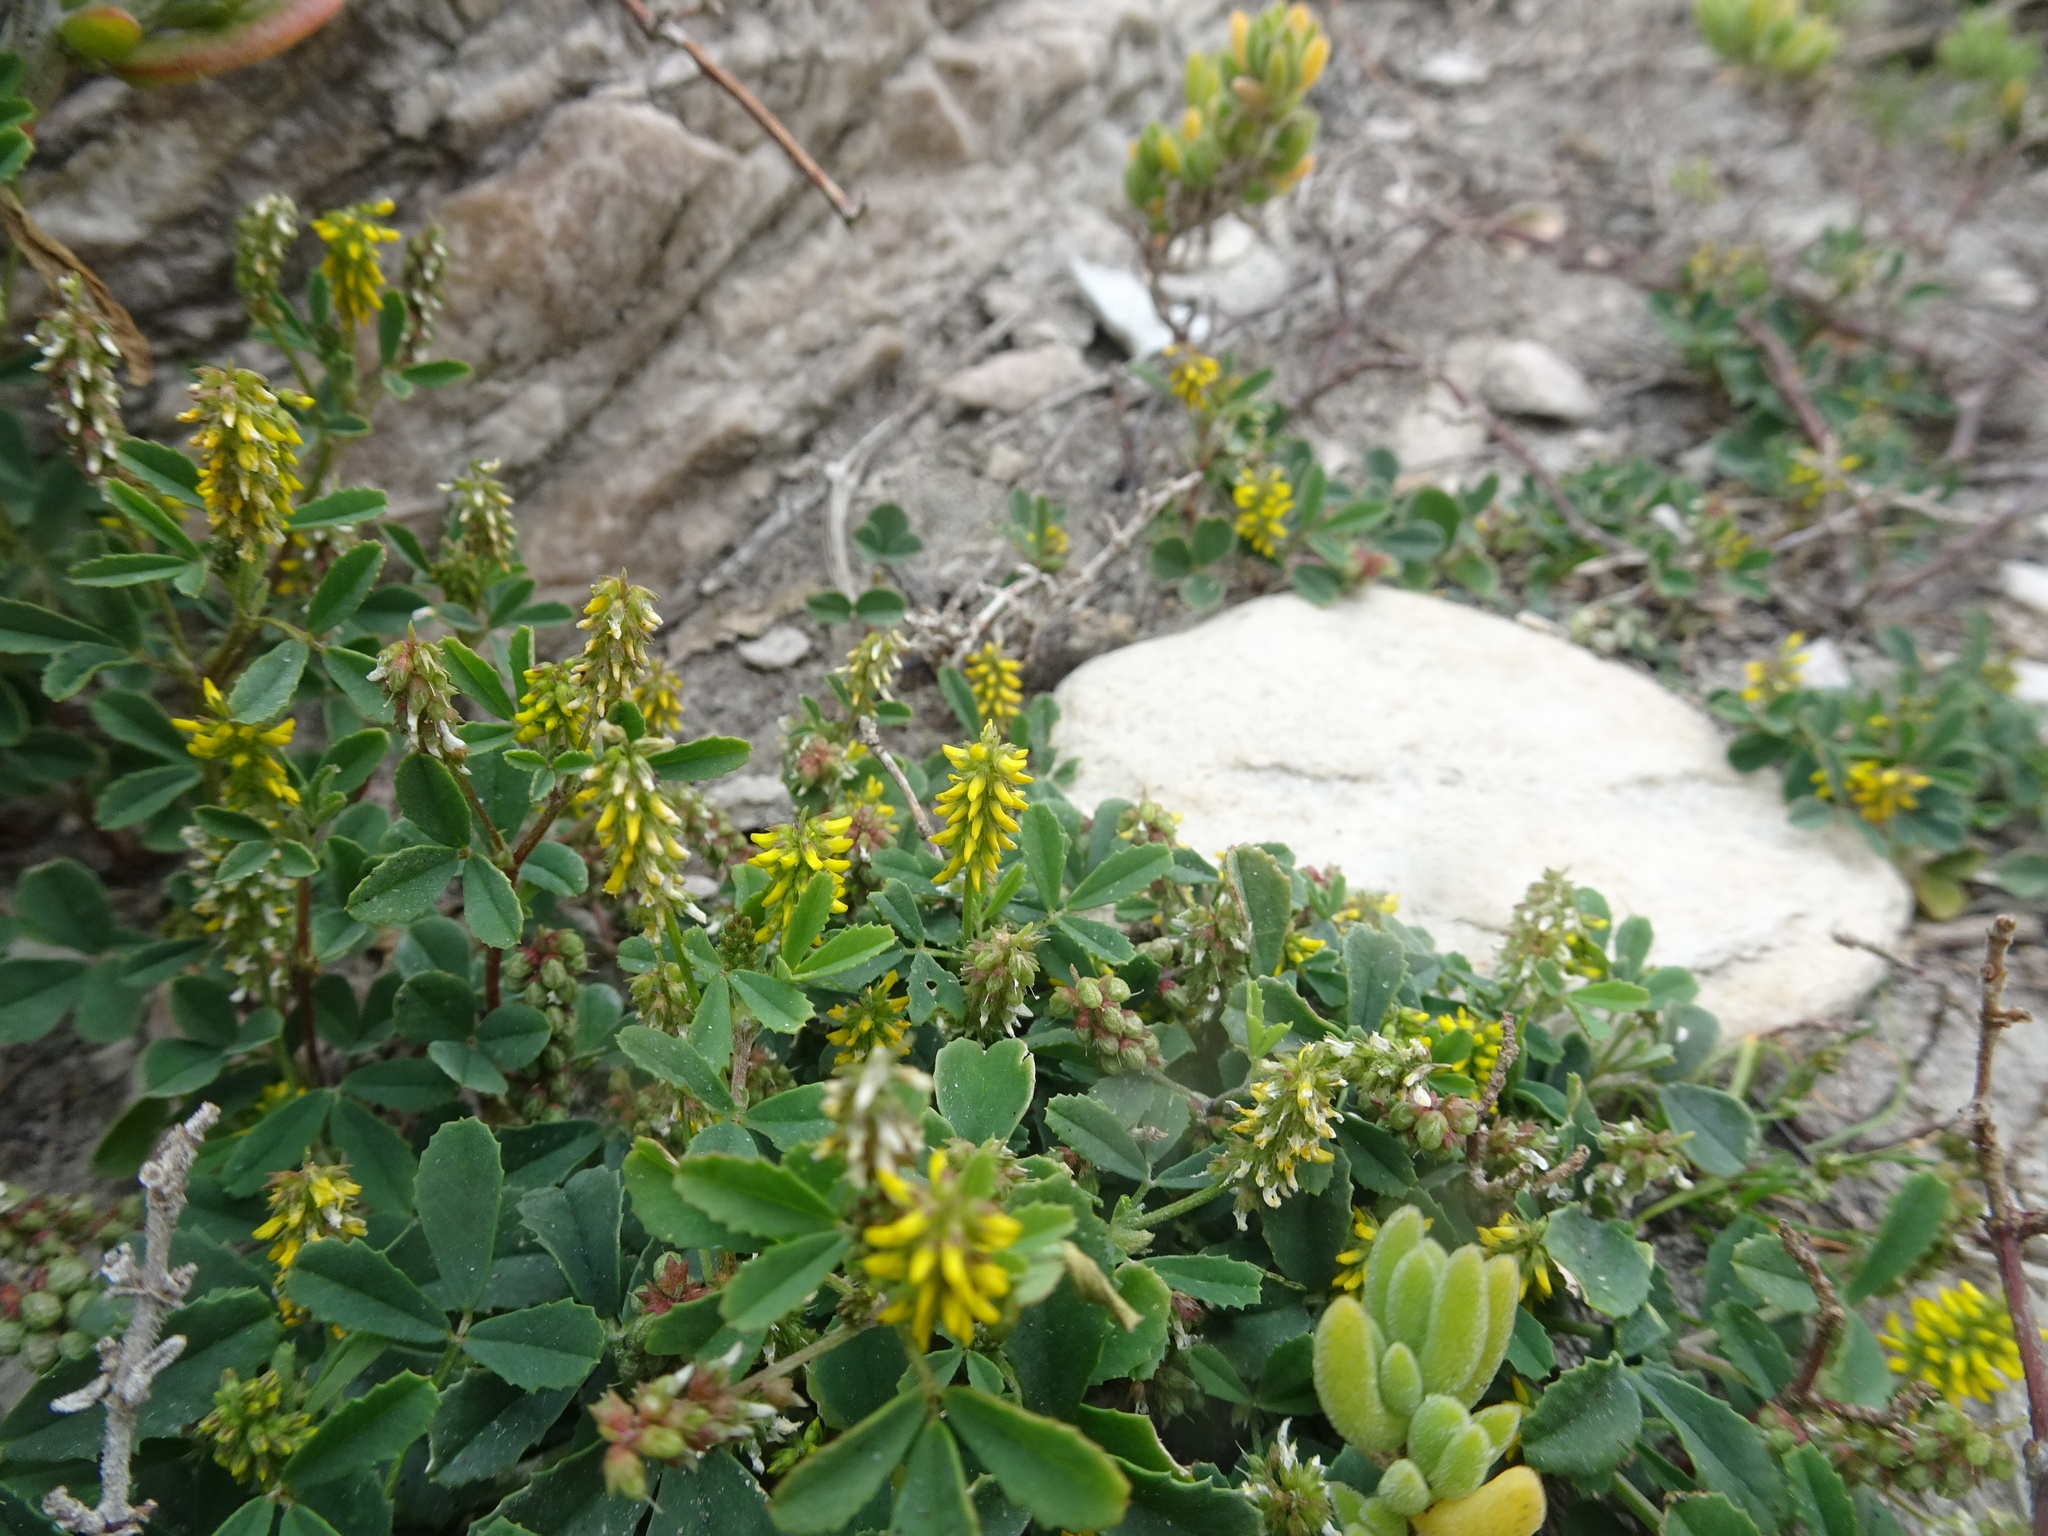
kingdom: Plantae
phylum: Tracheophyta
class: Magnoliopsida
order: Fabales
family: Fabaceae
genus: Melilotus
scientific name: Melilotus indicus
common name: Small melilot
